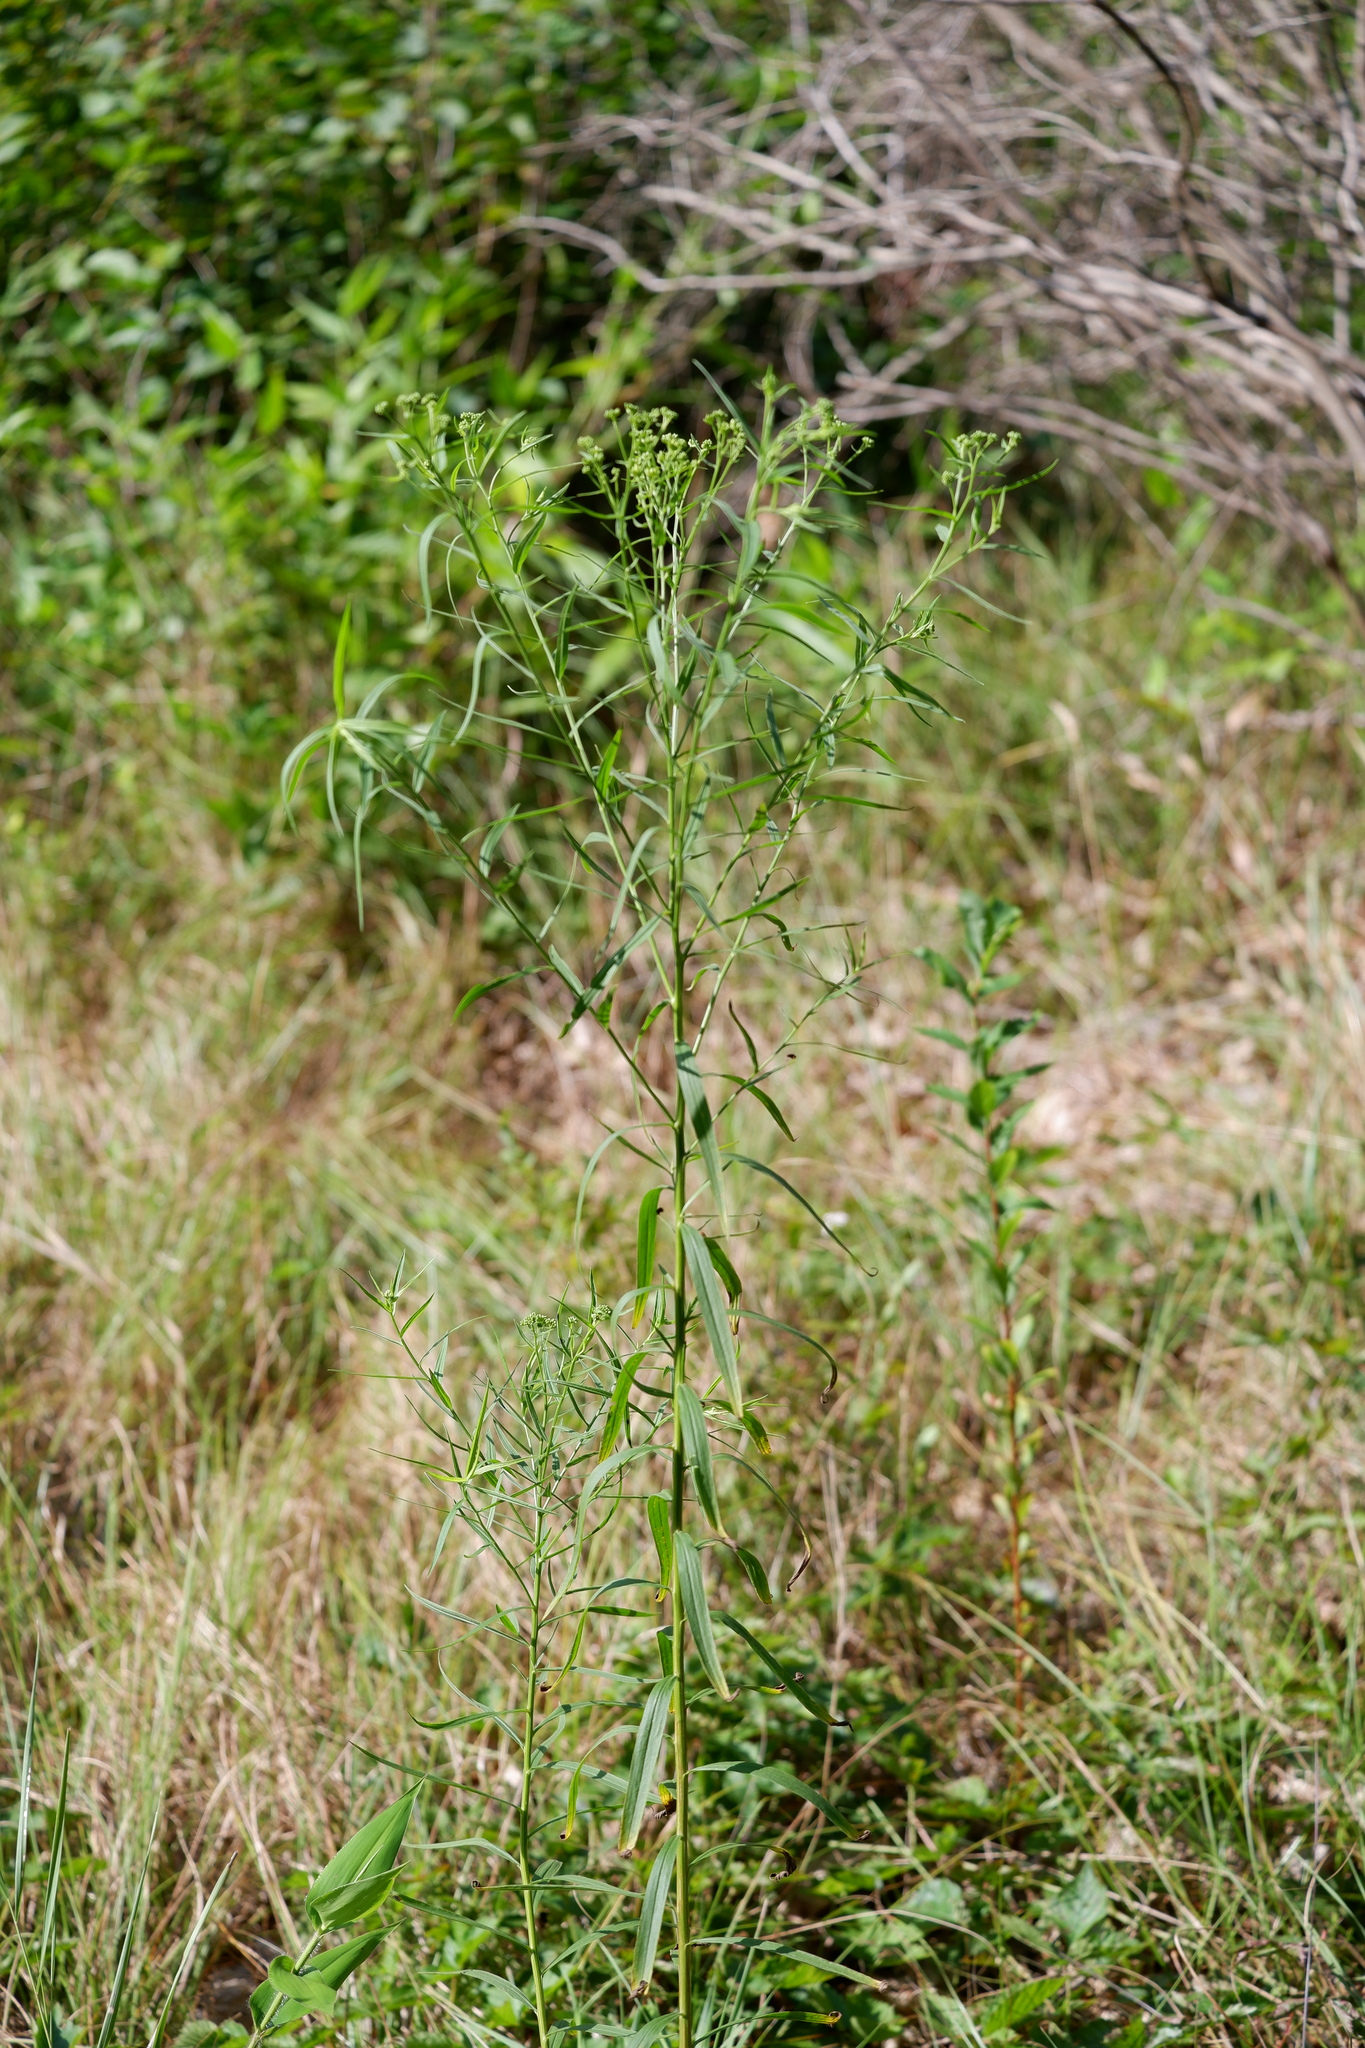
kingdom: Plantae
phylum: Tracheophyta
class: Magnoliopsida
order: Asterales
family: Asteraceae
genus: Euthamia
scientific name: Euthamia graminifolia
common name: Common goldentop
